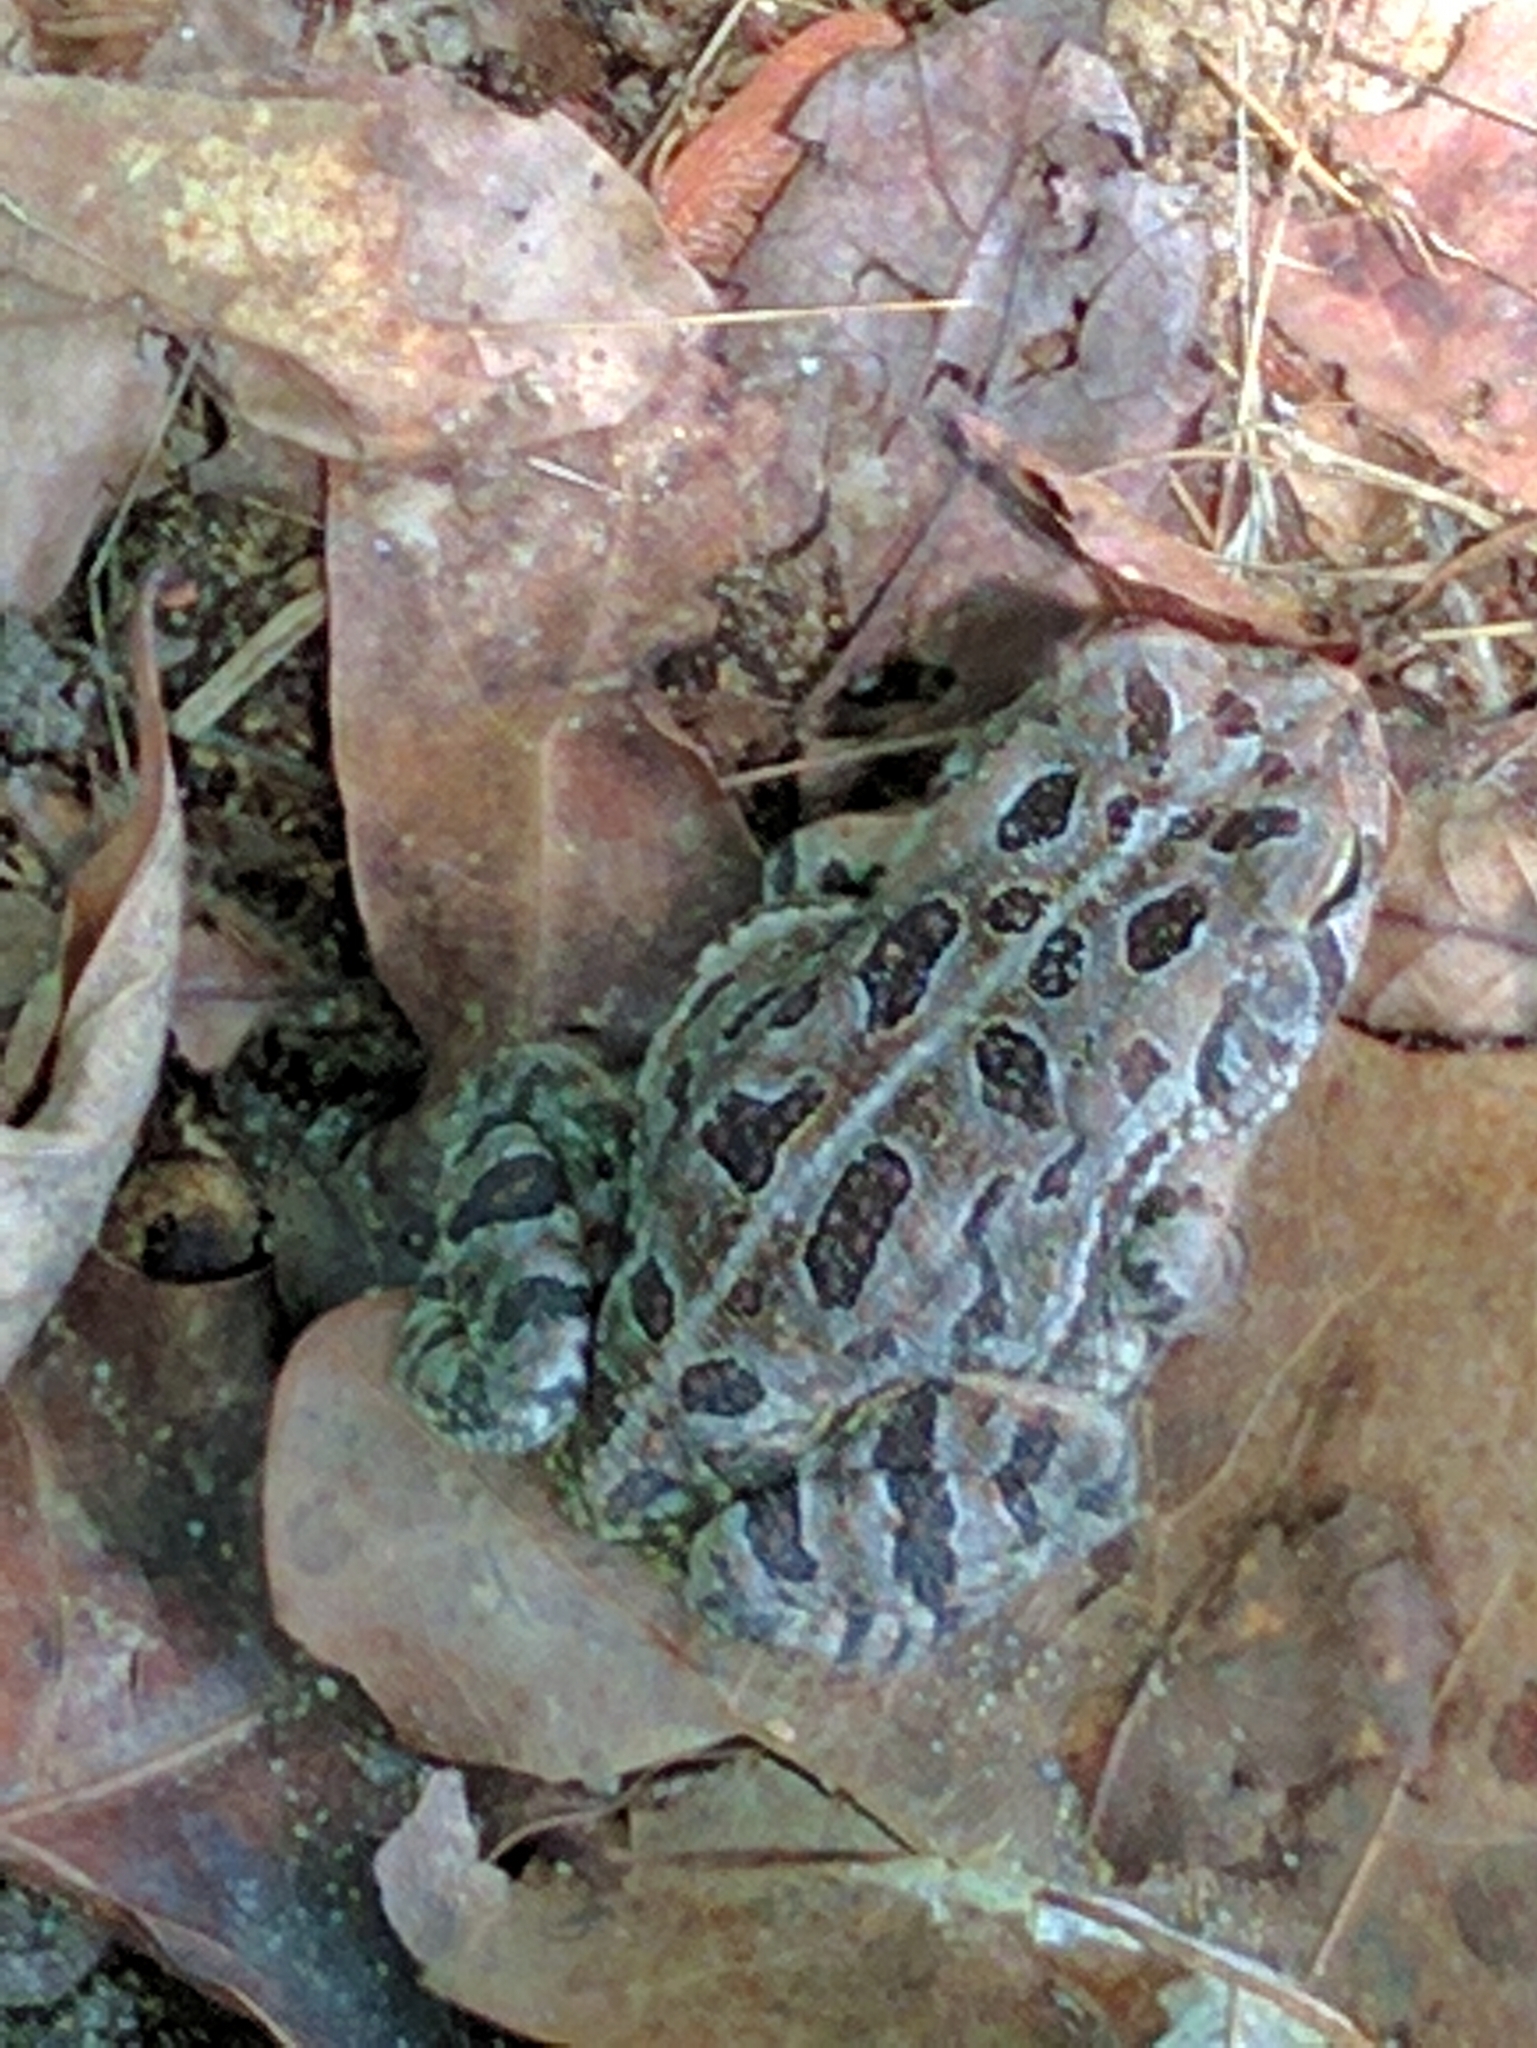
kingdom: Animalia
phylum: Chordata
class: Amphibia
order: Anura
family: Bufonidae
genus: Anaxyrus
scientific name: Anaxyrus fowleri
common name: Fowler's toad
